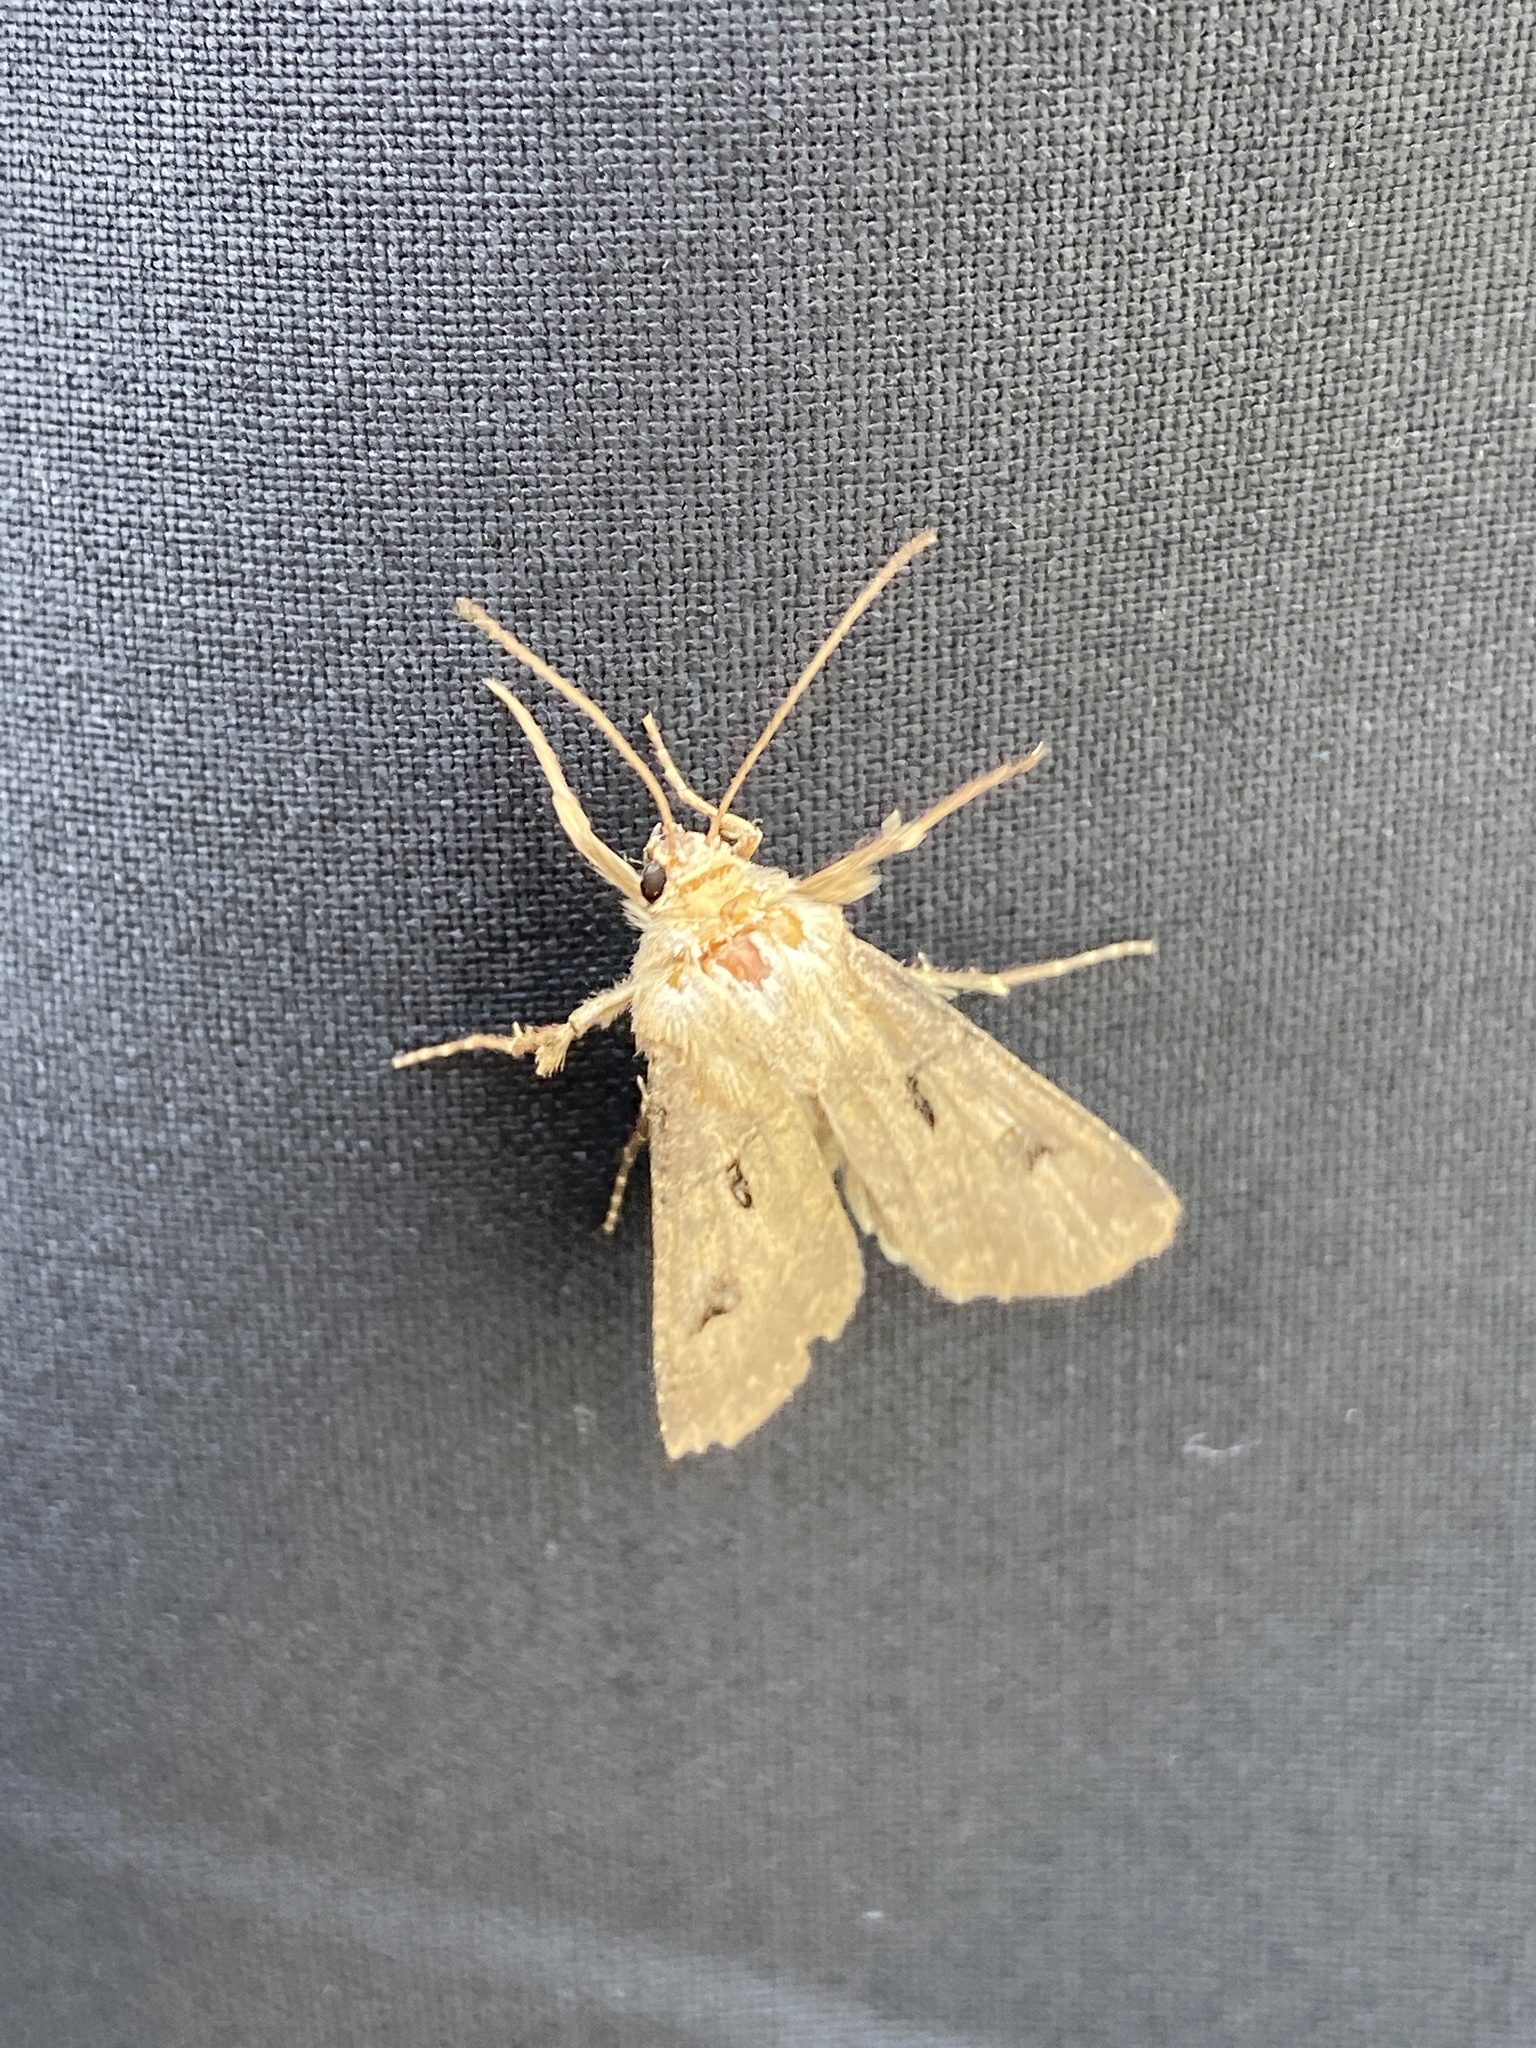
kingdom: Animalia
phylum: Arthropoda
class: Insecta
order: Lepidoptera
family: Noctuidae
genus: Agrotis
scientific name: Agrotis exclamationis
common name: Heart and dart
